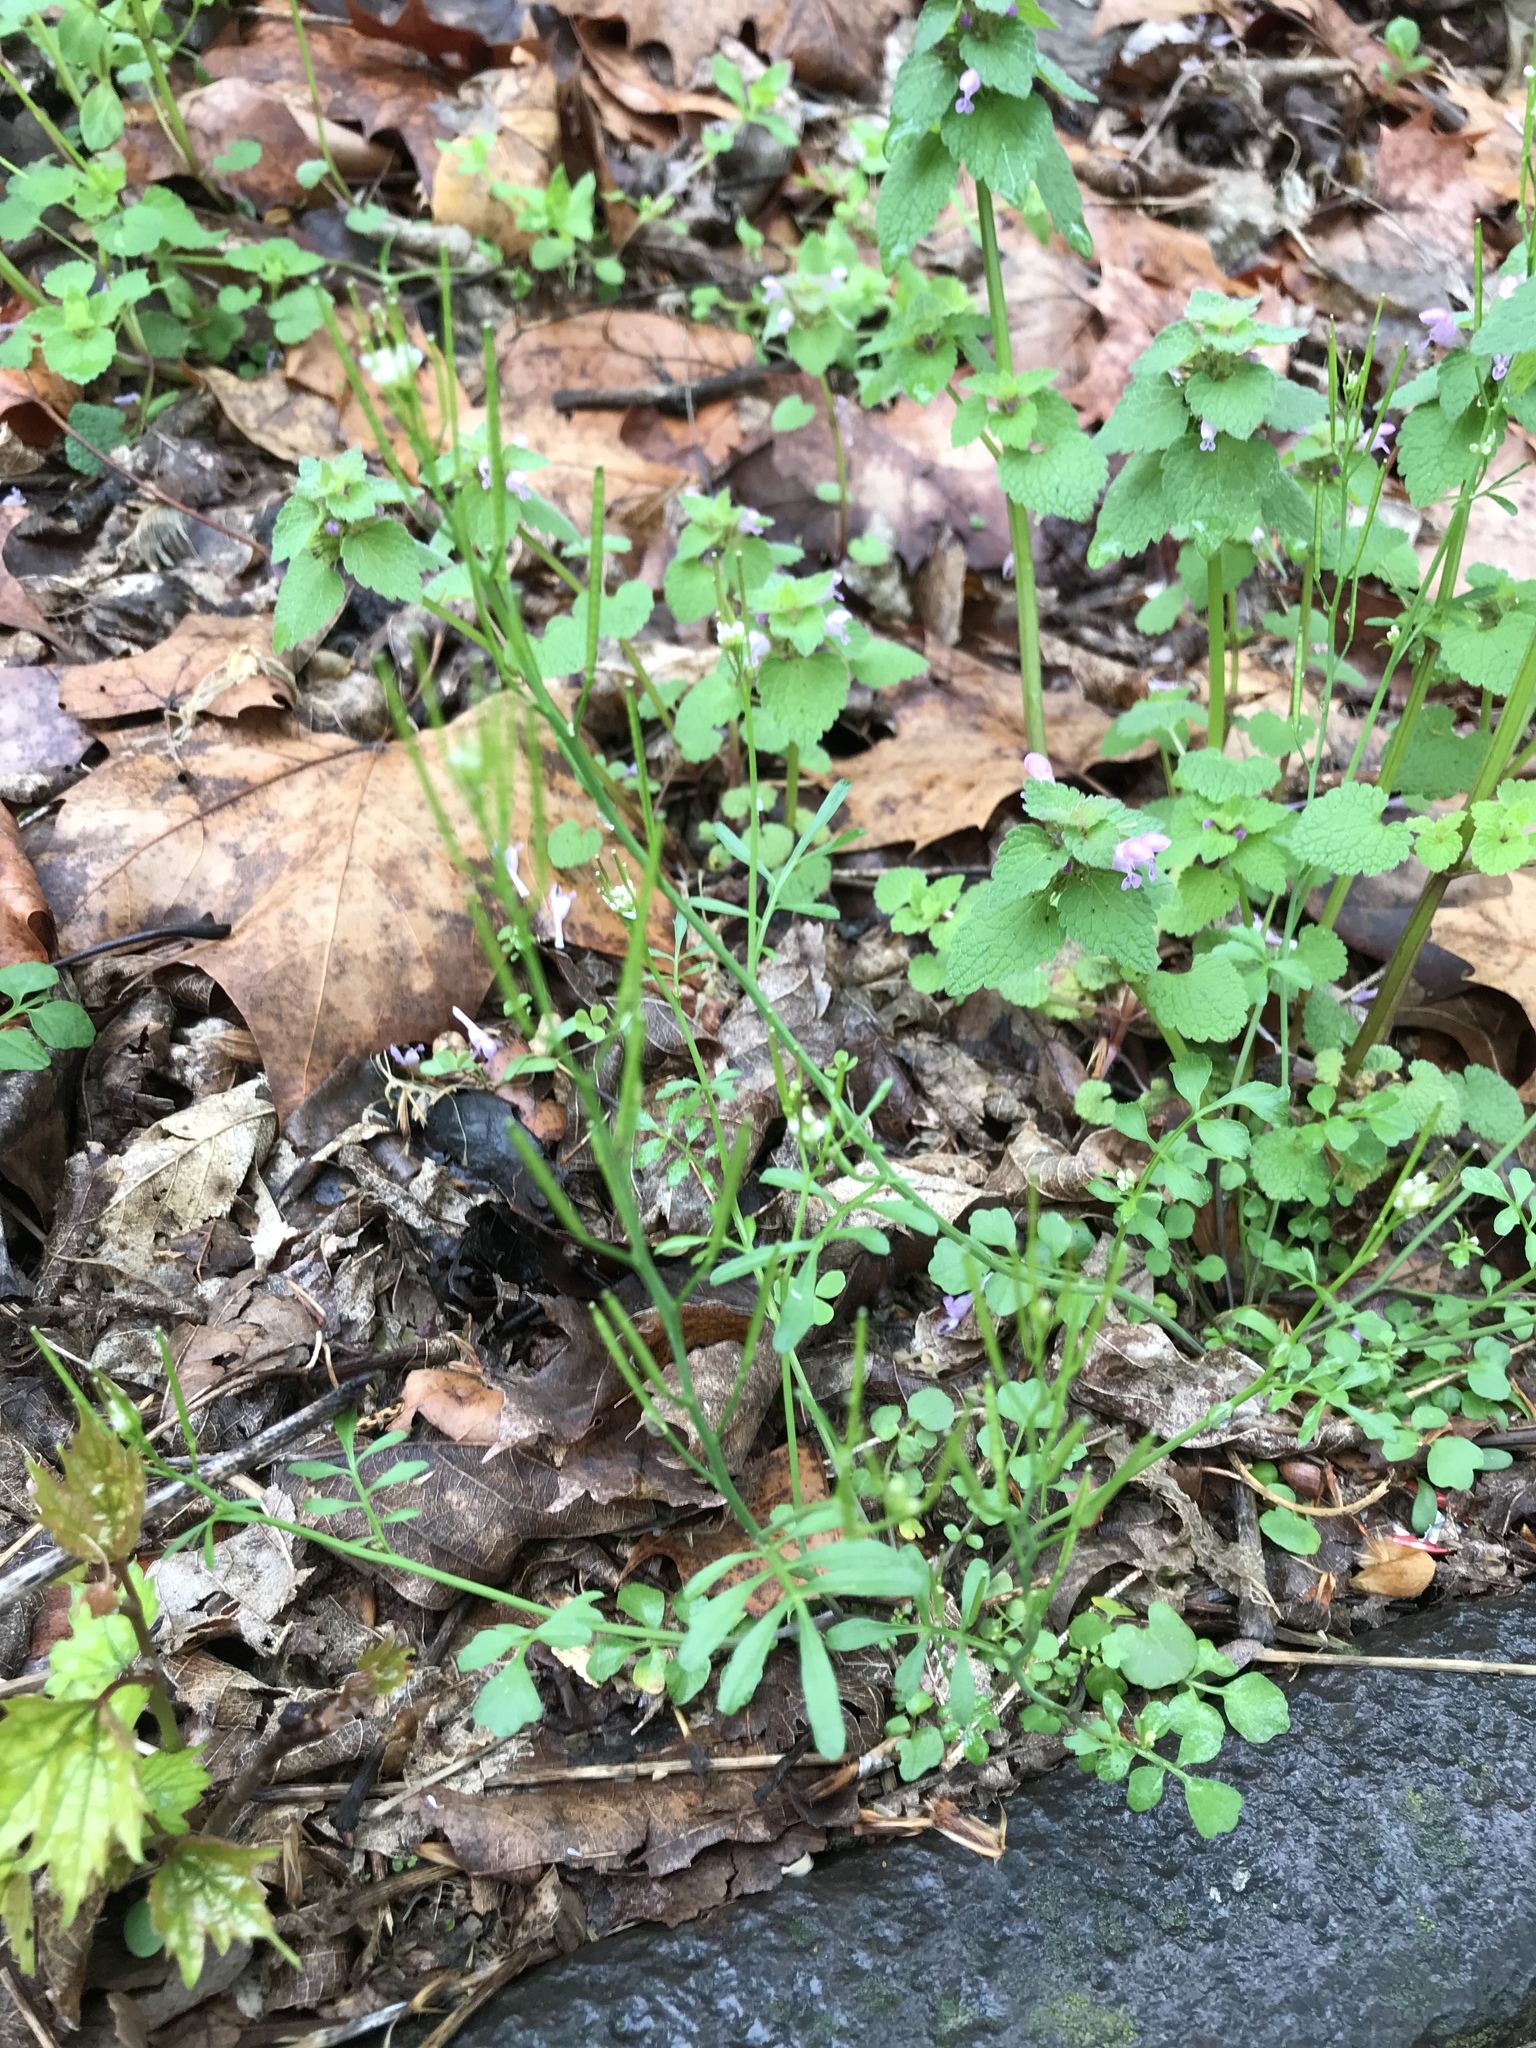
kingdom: Plantae
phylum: Tracheophyta
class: Magnoliopsida
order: Brassicales
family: Brassicaceae
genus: Cardamine
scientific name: Cardamine hirsuta
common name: Hairy bittercress
